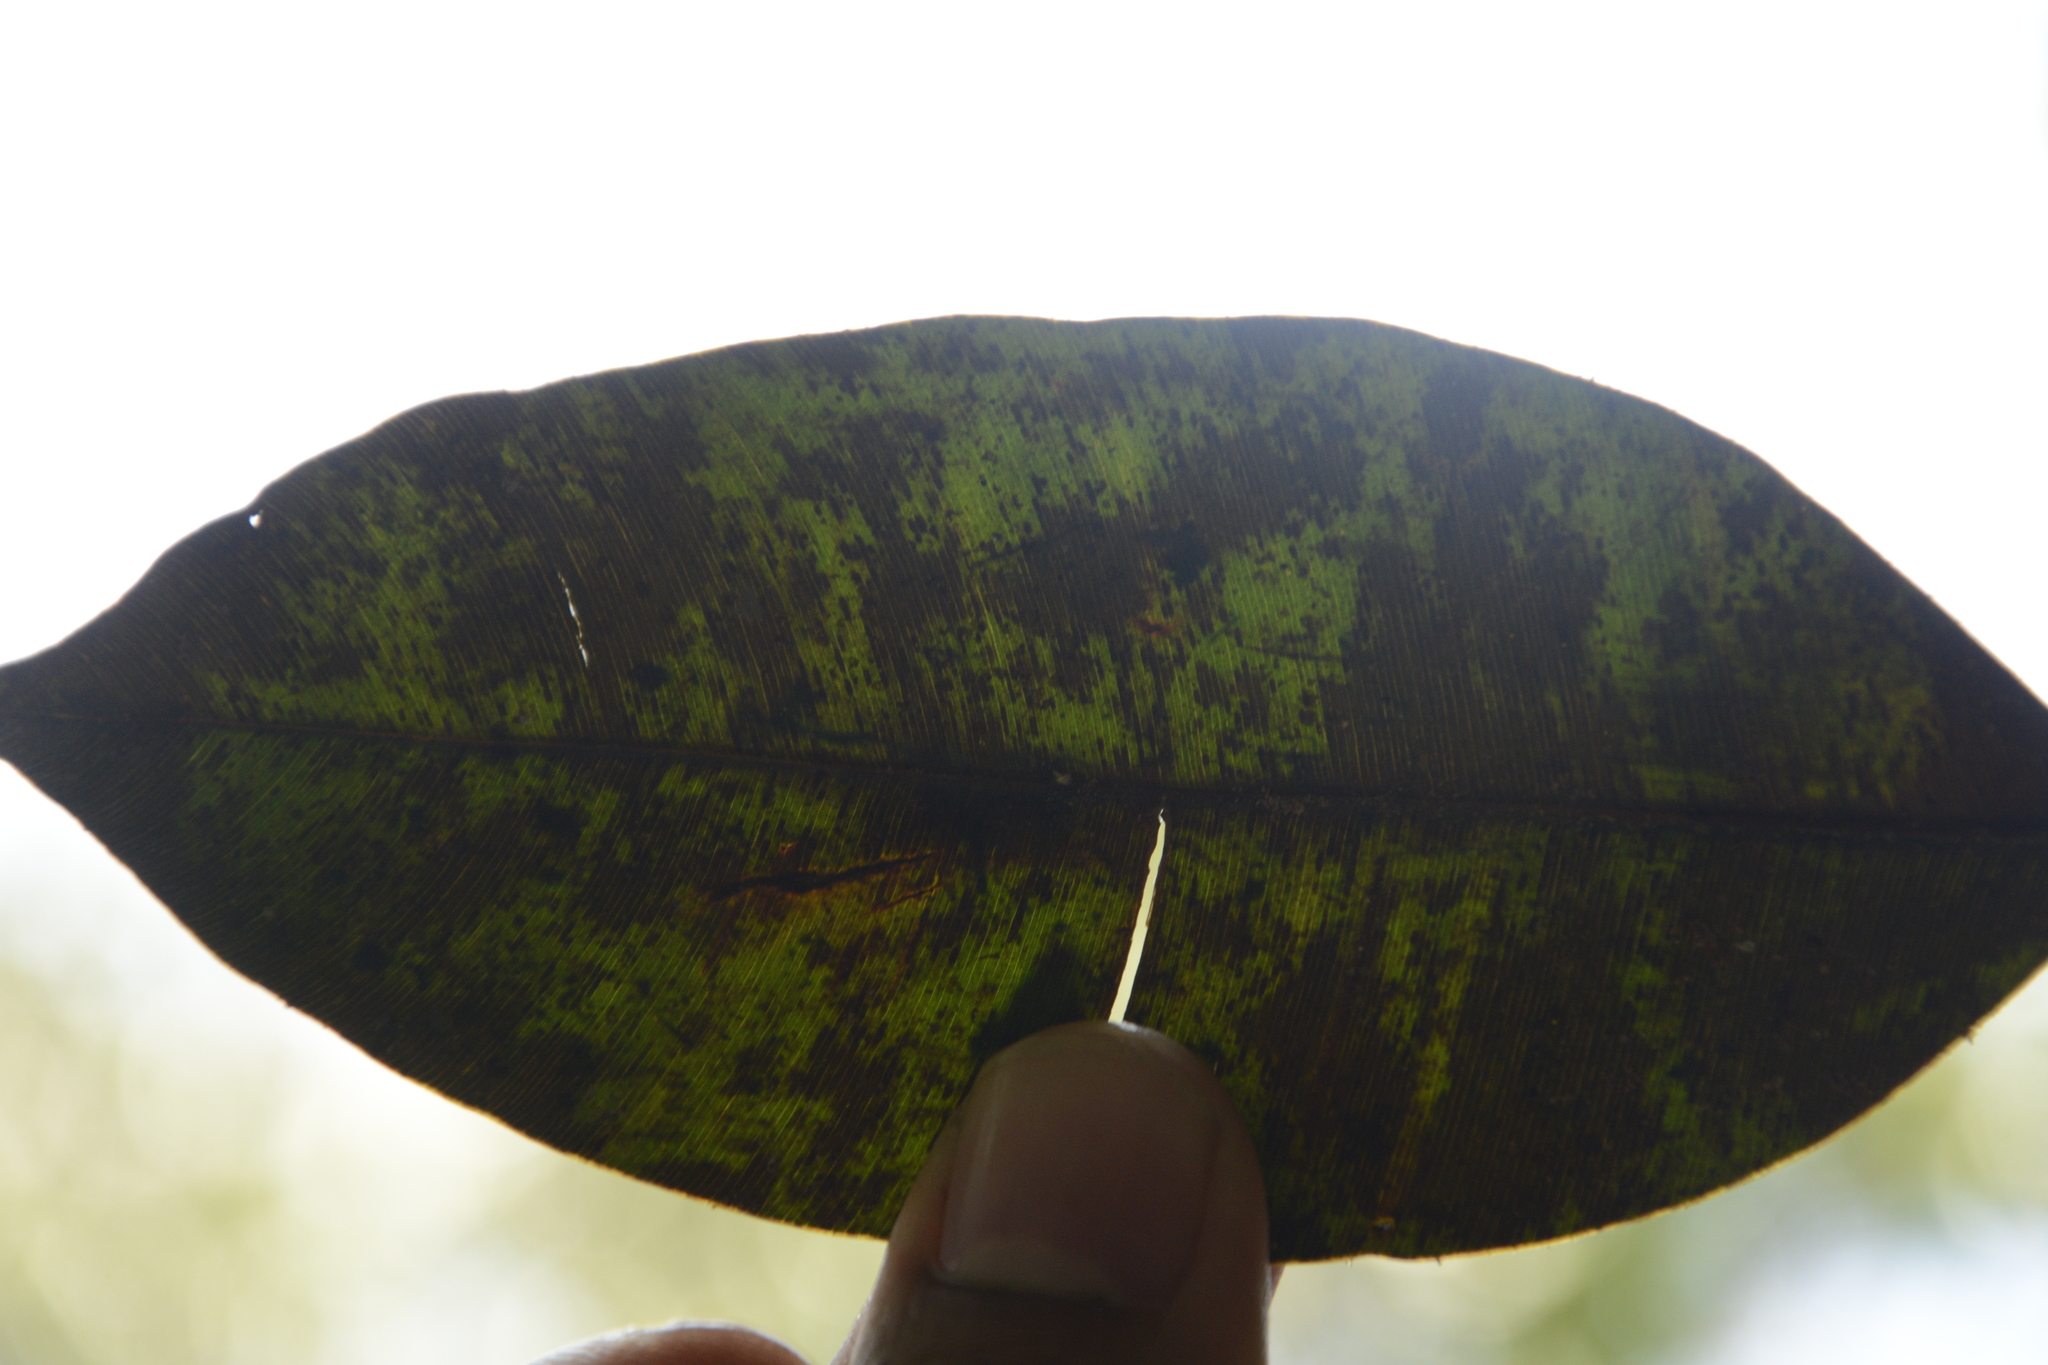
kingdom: Plantae
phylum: Tracheophyta
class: Magnoliopsida
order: Malpighiales
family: Calophyllaceae
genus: Calophyllum
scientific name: Calophyllum polyanthum
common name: Poonspar
